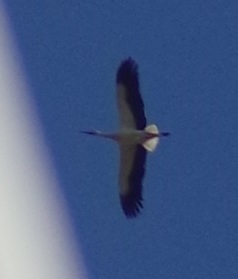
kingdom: Animalia
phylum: Chordata
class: Aves
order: Ciconiiformes
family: Ciconiidae
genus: Ciconia
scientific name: Ciconia ciconia
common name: White stork
